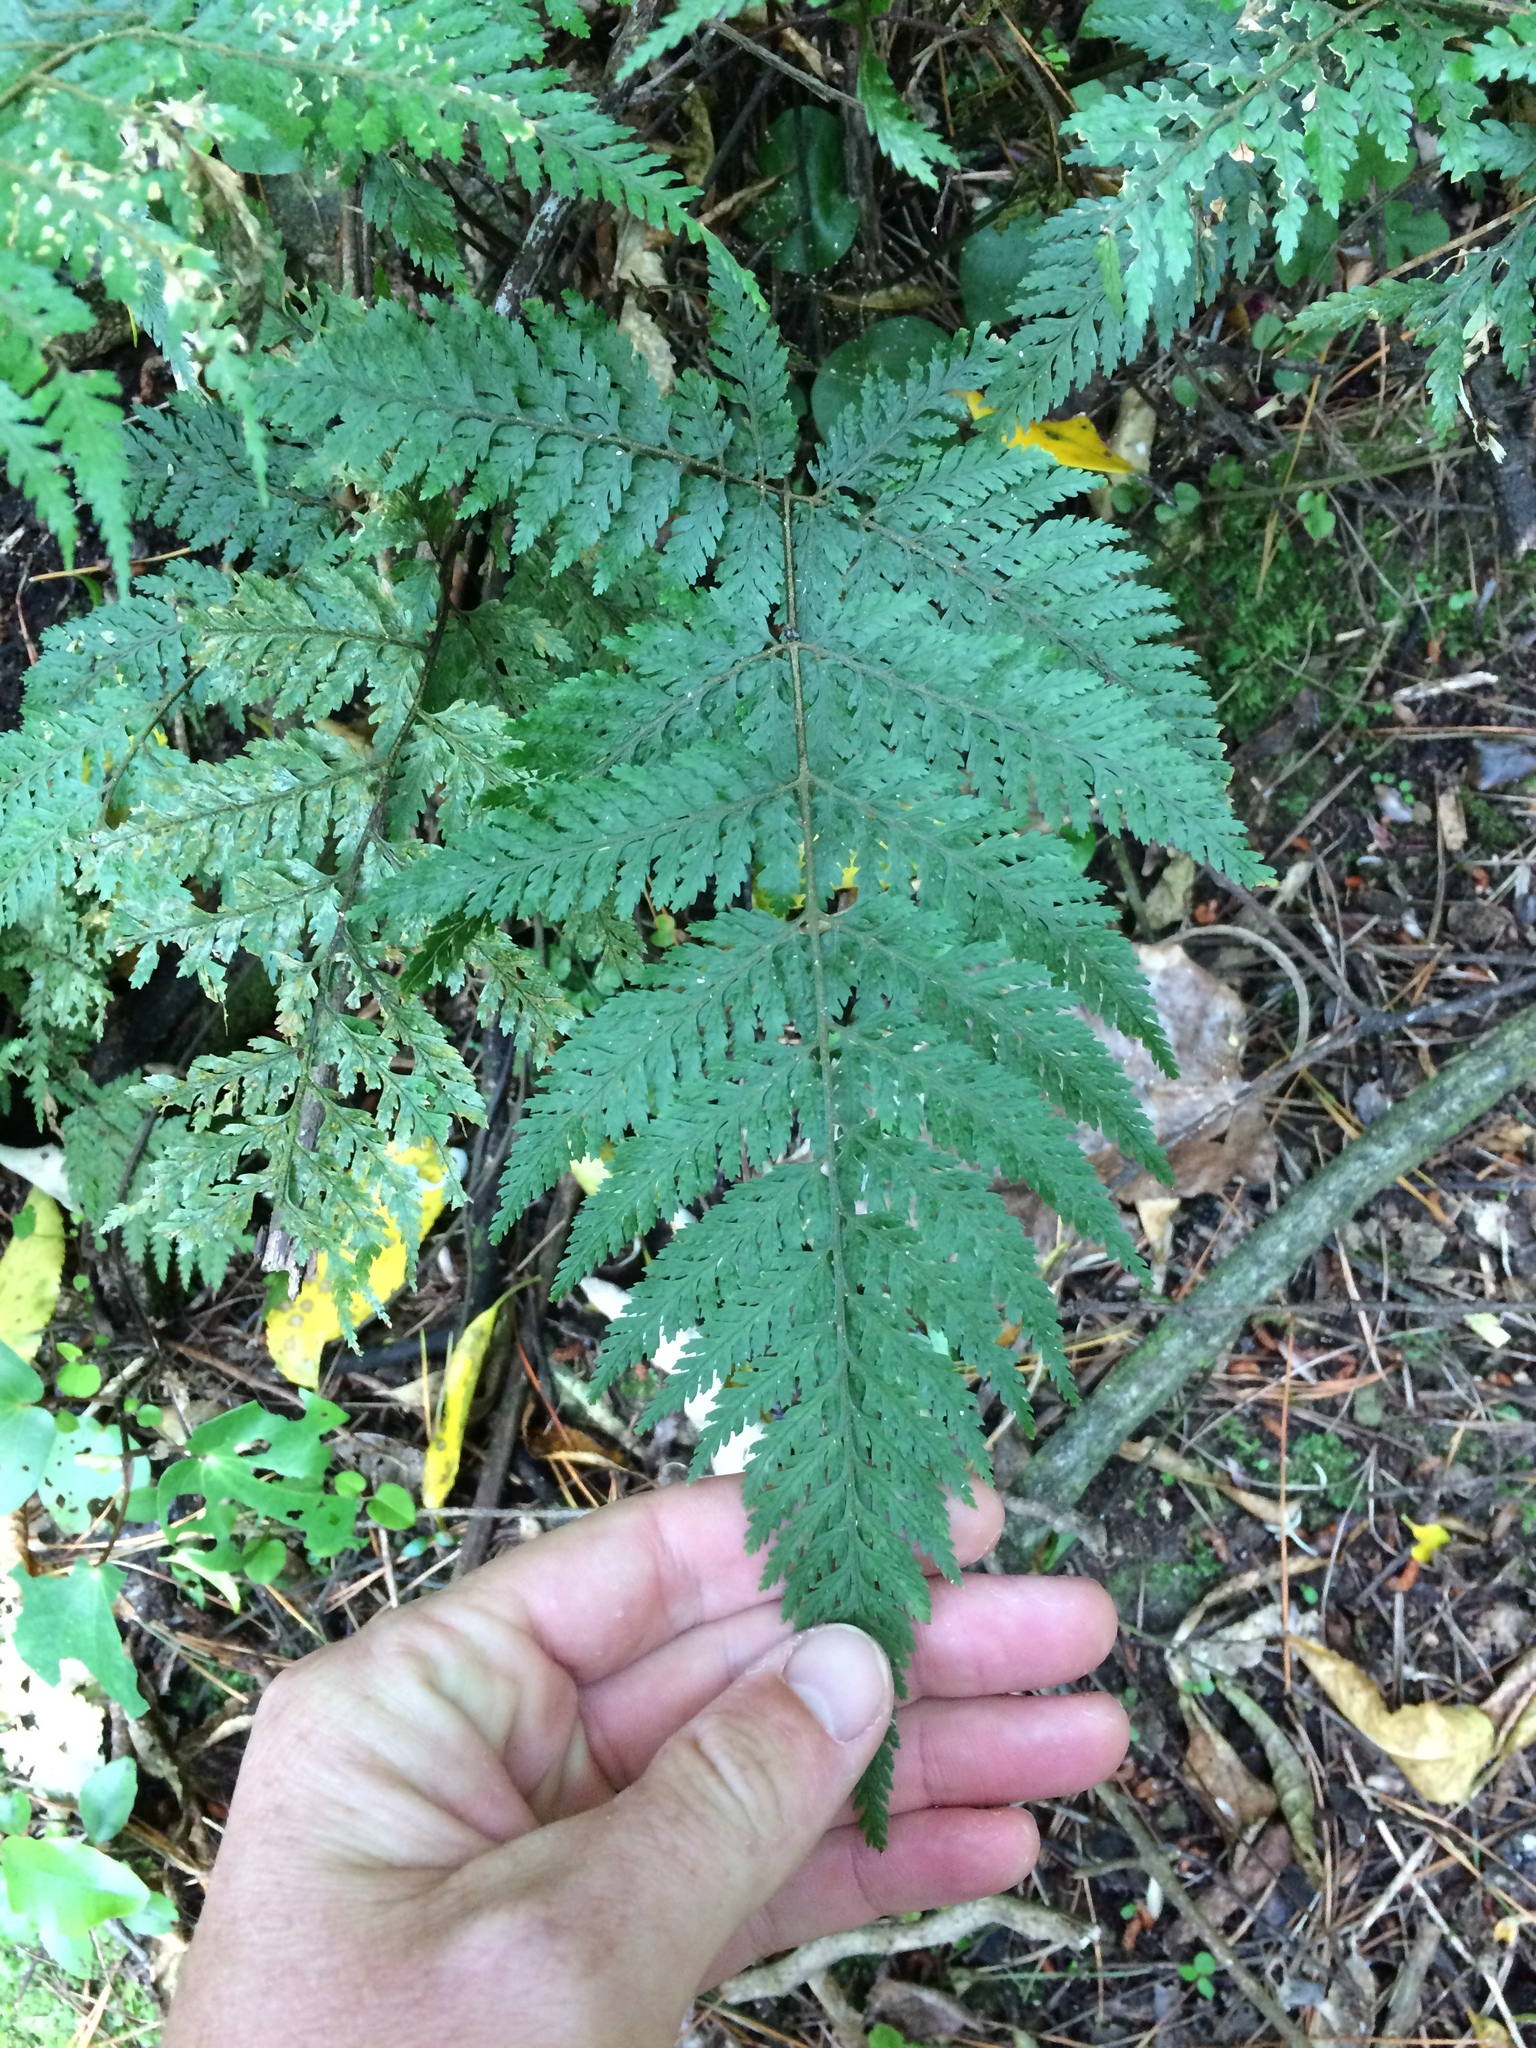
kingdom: Plantae
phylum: Tracheophyta
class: Polypodiopsida
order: Polypodiales
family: Dryopteridaceae
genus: Parapolystichum
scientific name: Parapolystichum glabellum
